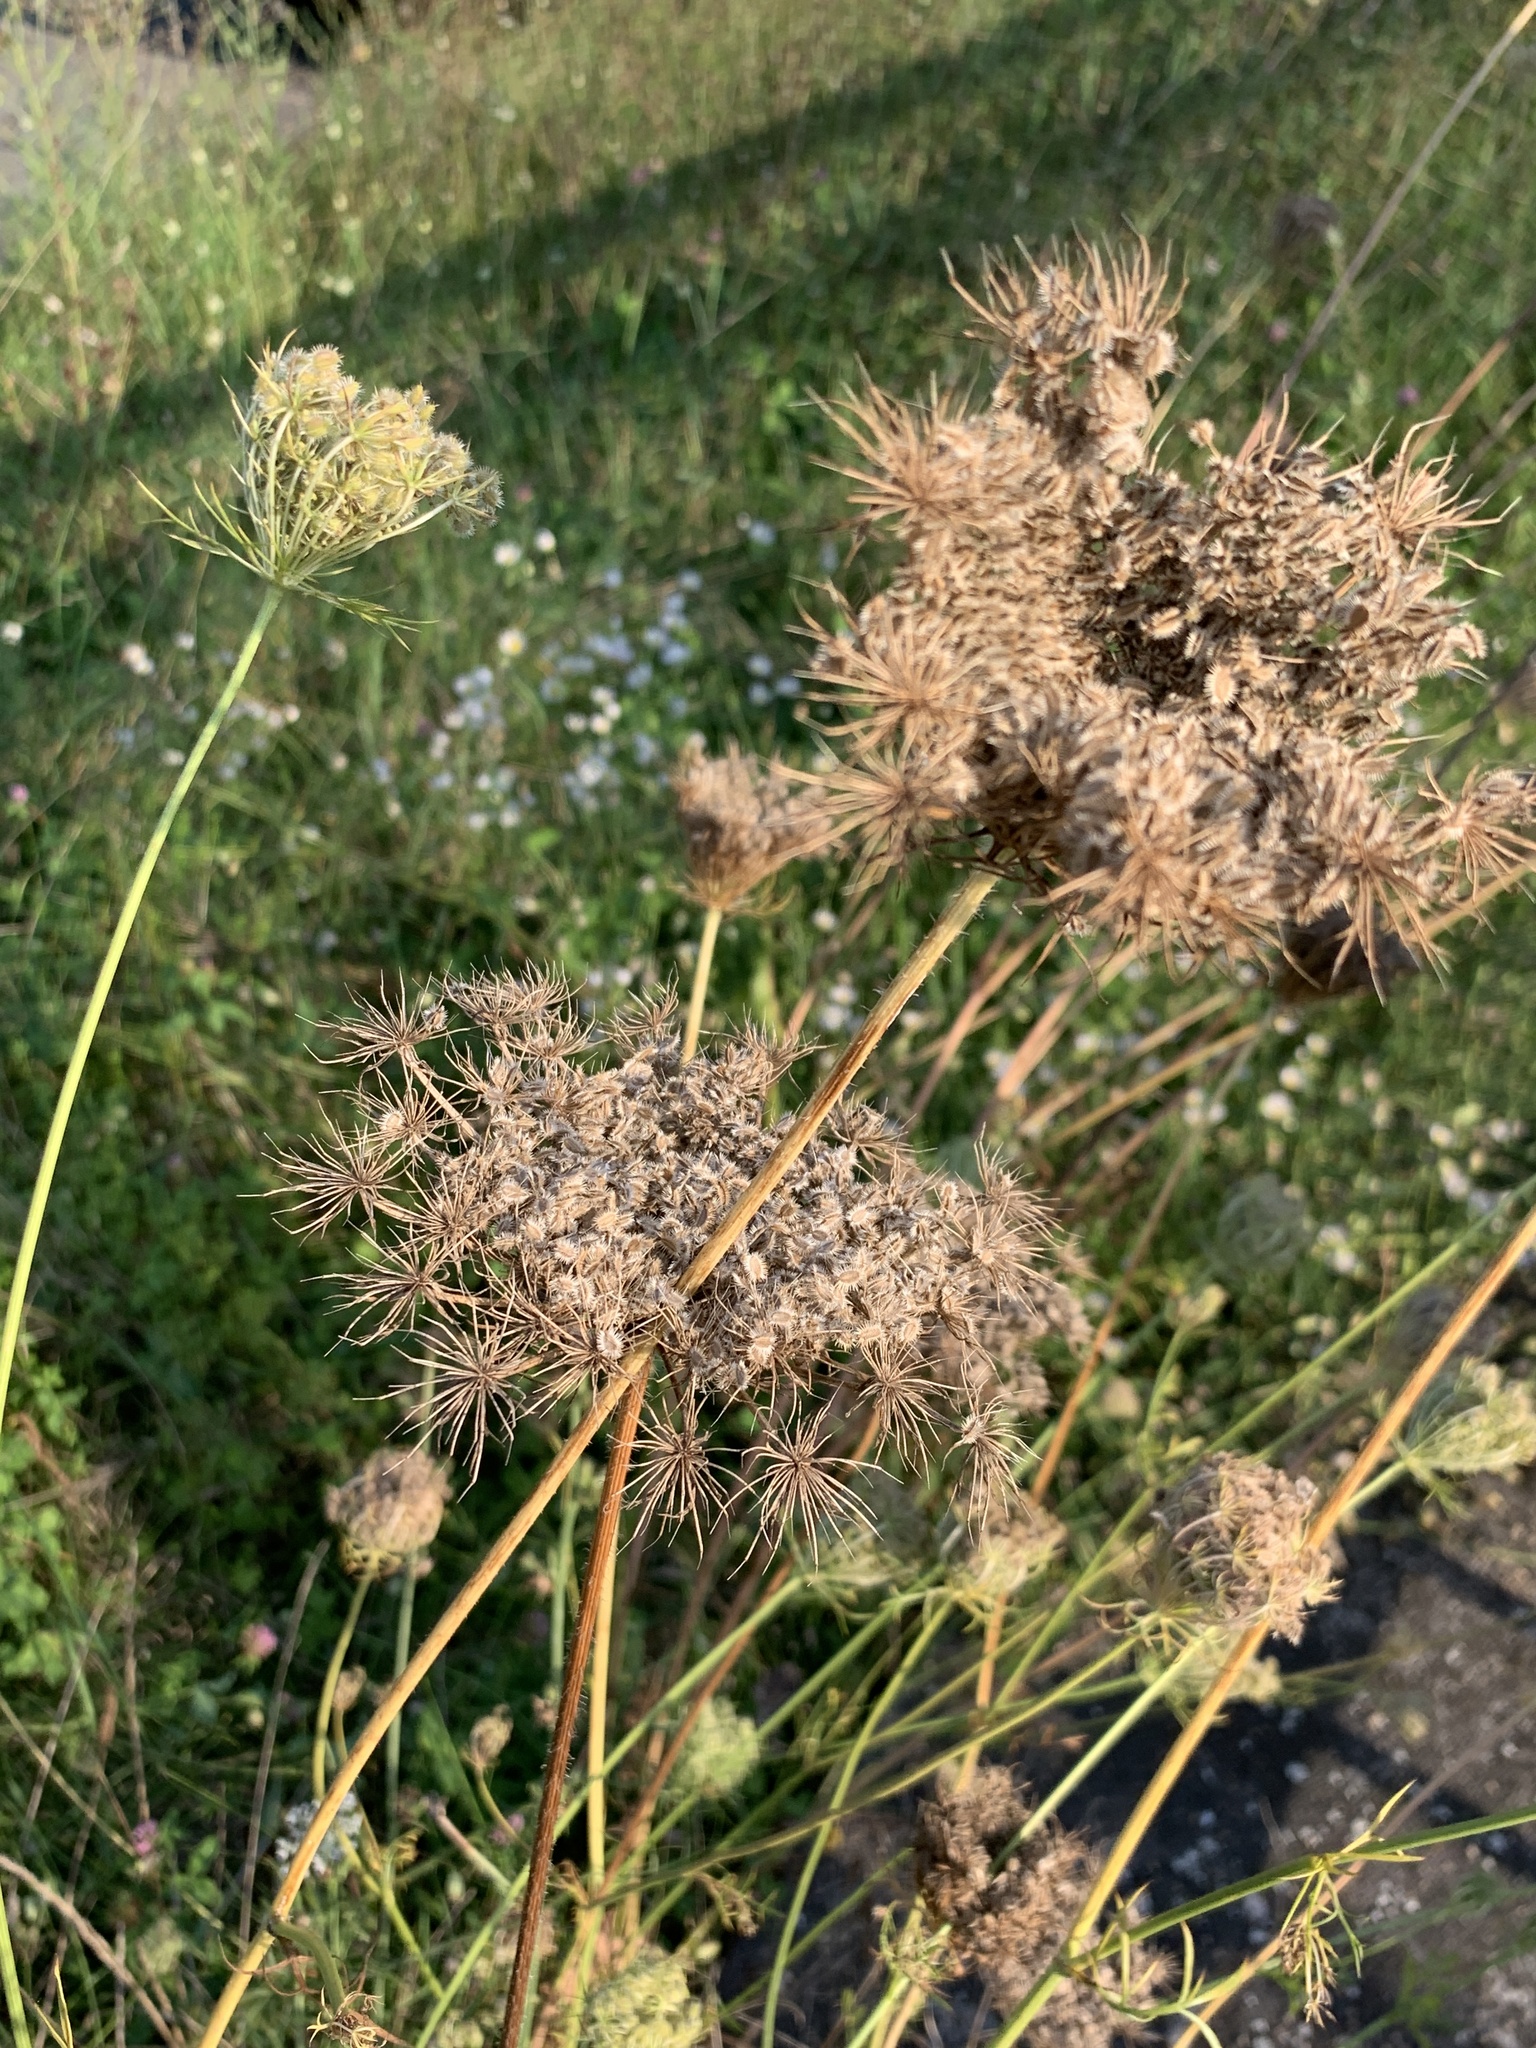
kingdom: Plantae
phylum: Tracheophyta
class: Magnoliopsida
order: Apiales
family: Apiaceae
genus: Daucus
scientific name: Daucus carota
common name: Wild carrot
